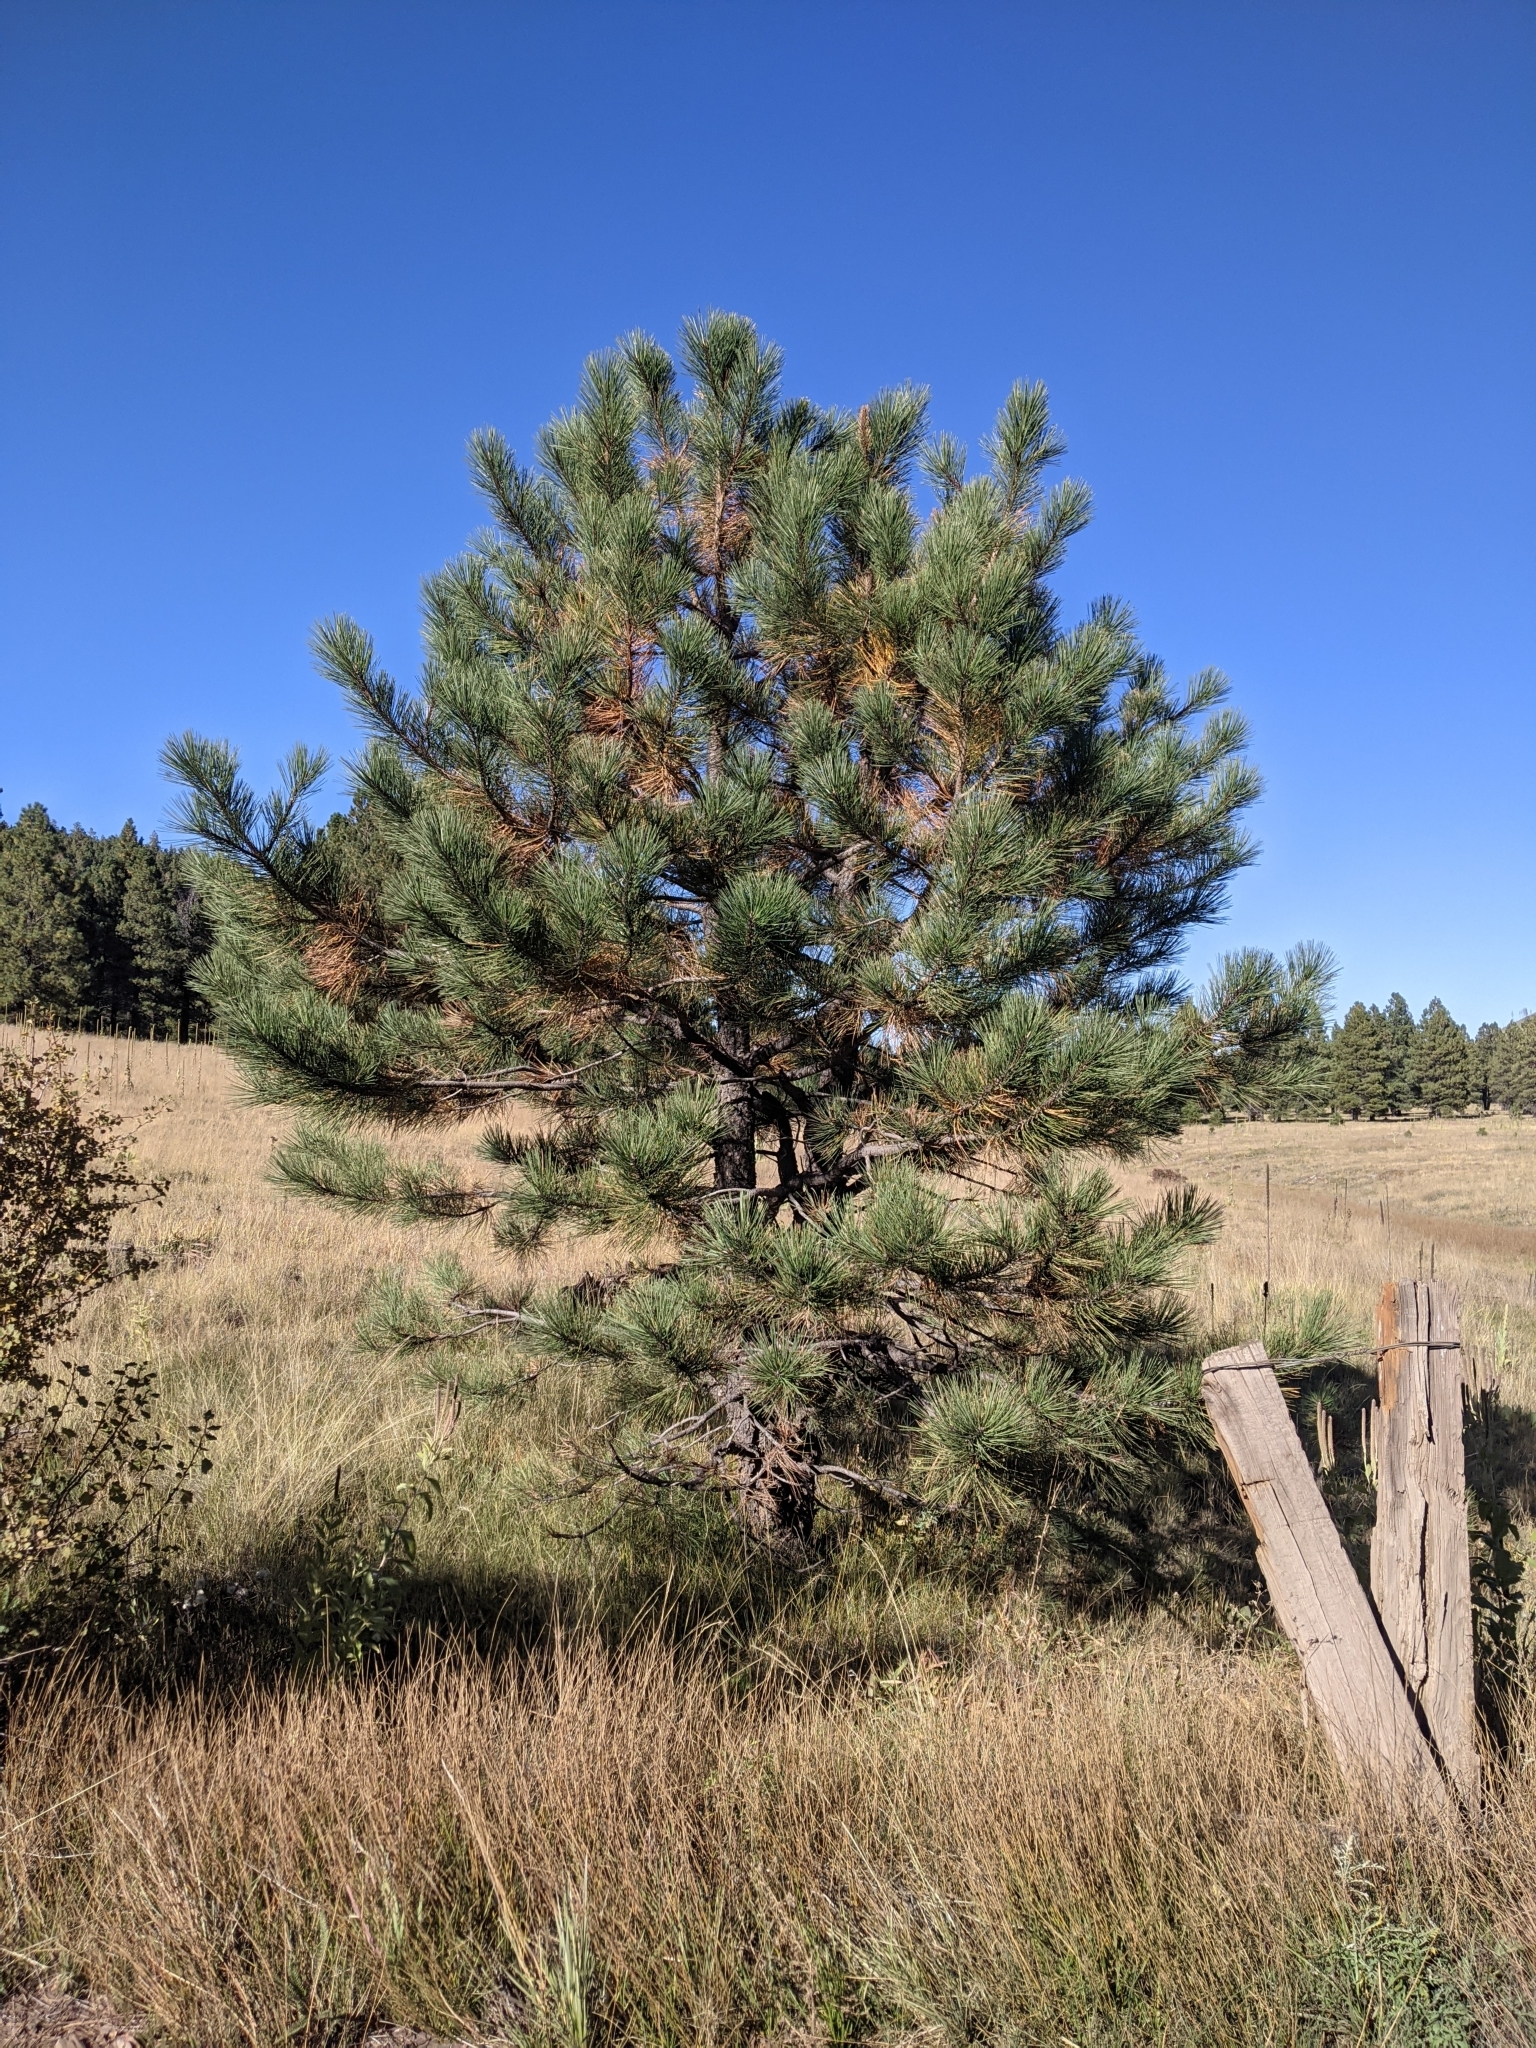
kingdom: Plantae
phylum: Tracheophyta
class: Pinopsida
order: Pinales
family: Pinaceae
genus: Pinus
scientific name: Pinus ponderosa
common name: Western yellow-pine
